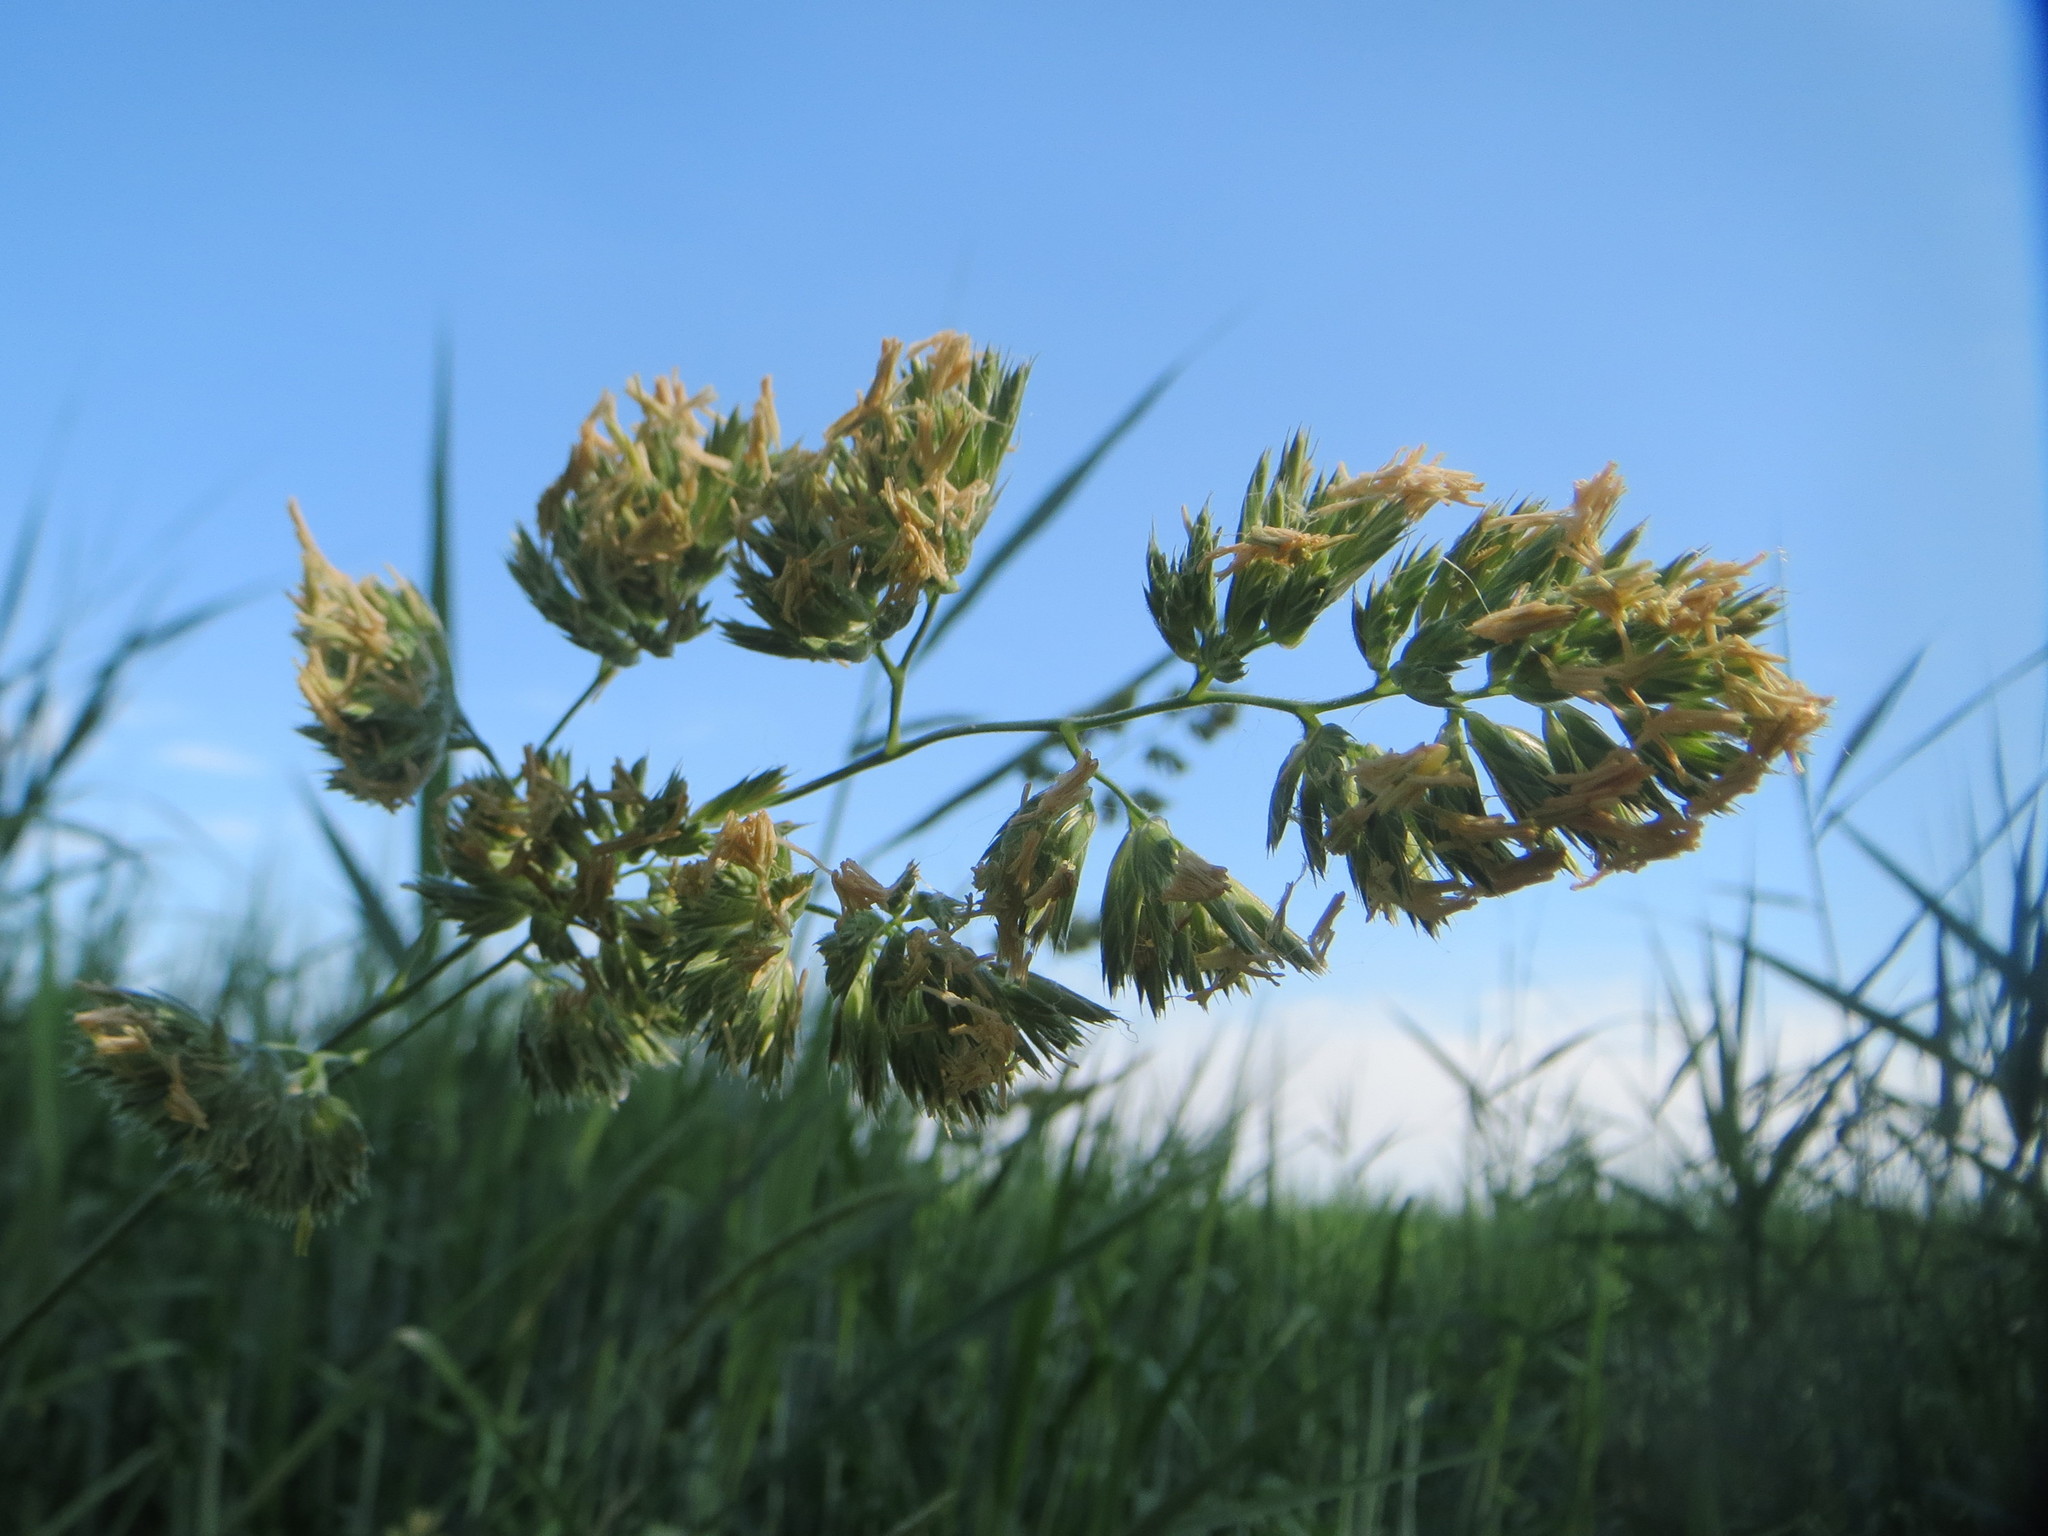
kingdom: Plantae
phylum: Tracheophyta
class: Liliopsida
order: Poales
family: Poaceae
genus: Dactylis
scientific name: Dactylis glomerata
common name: Orchardgrass
